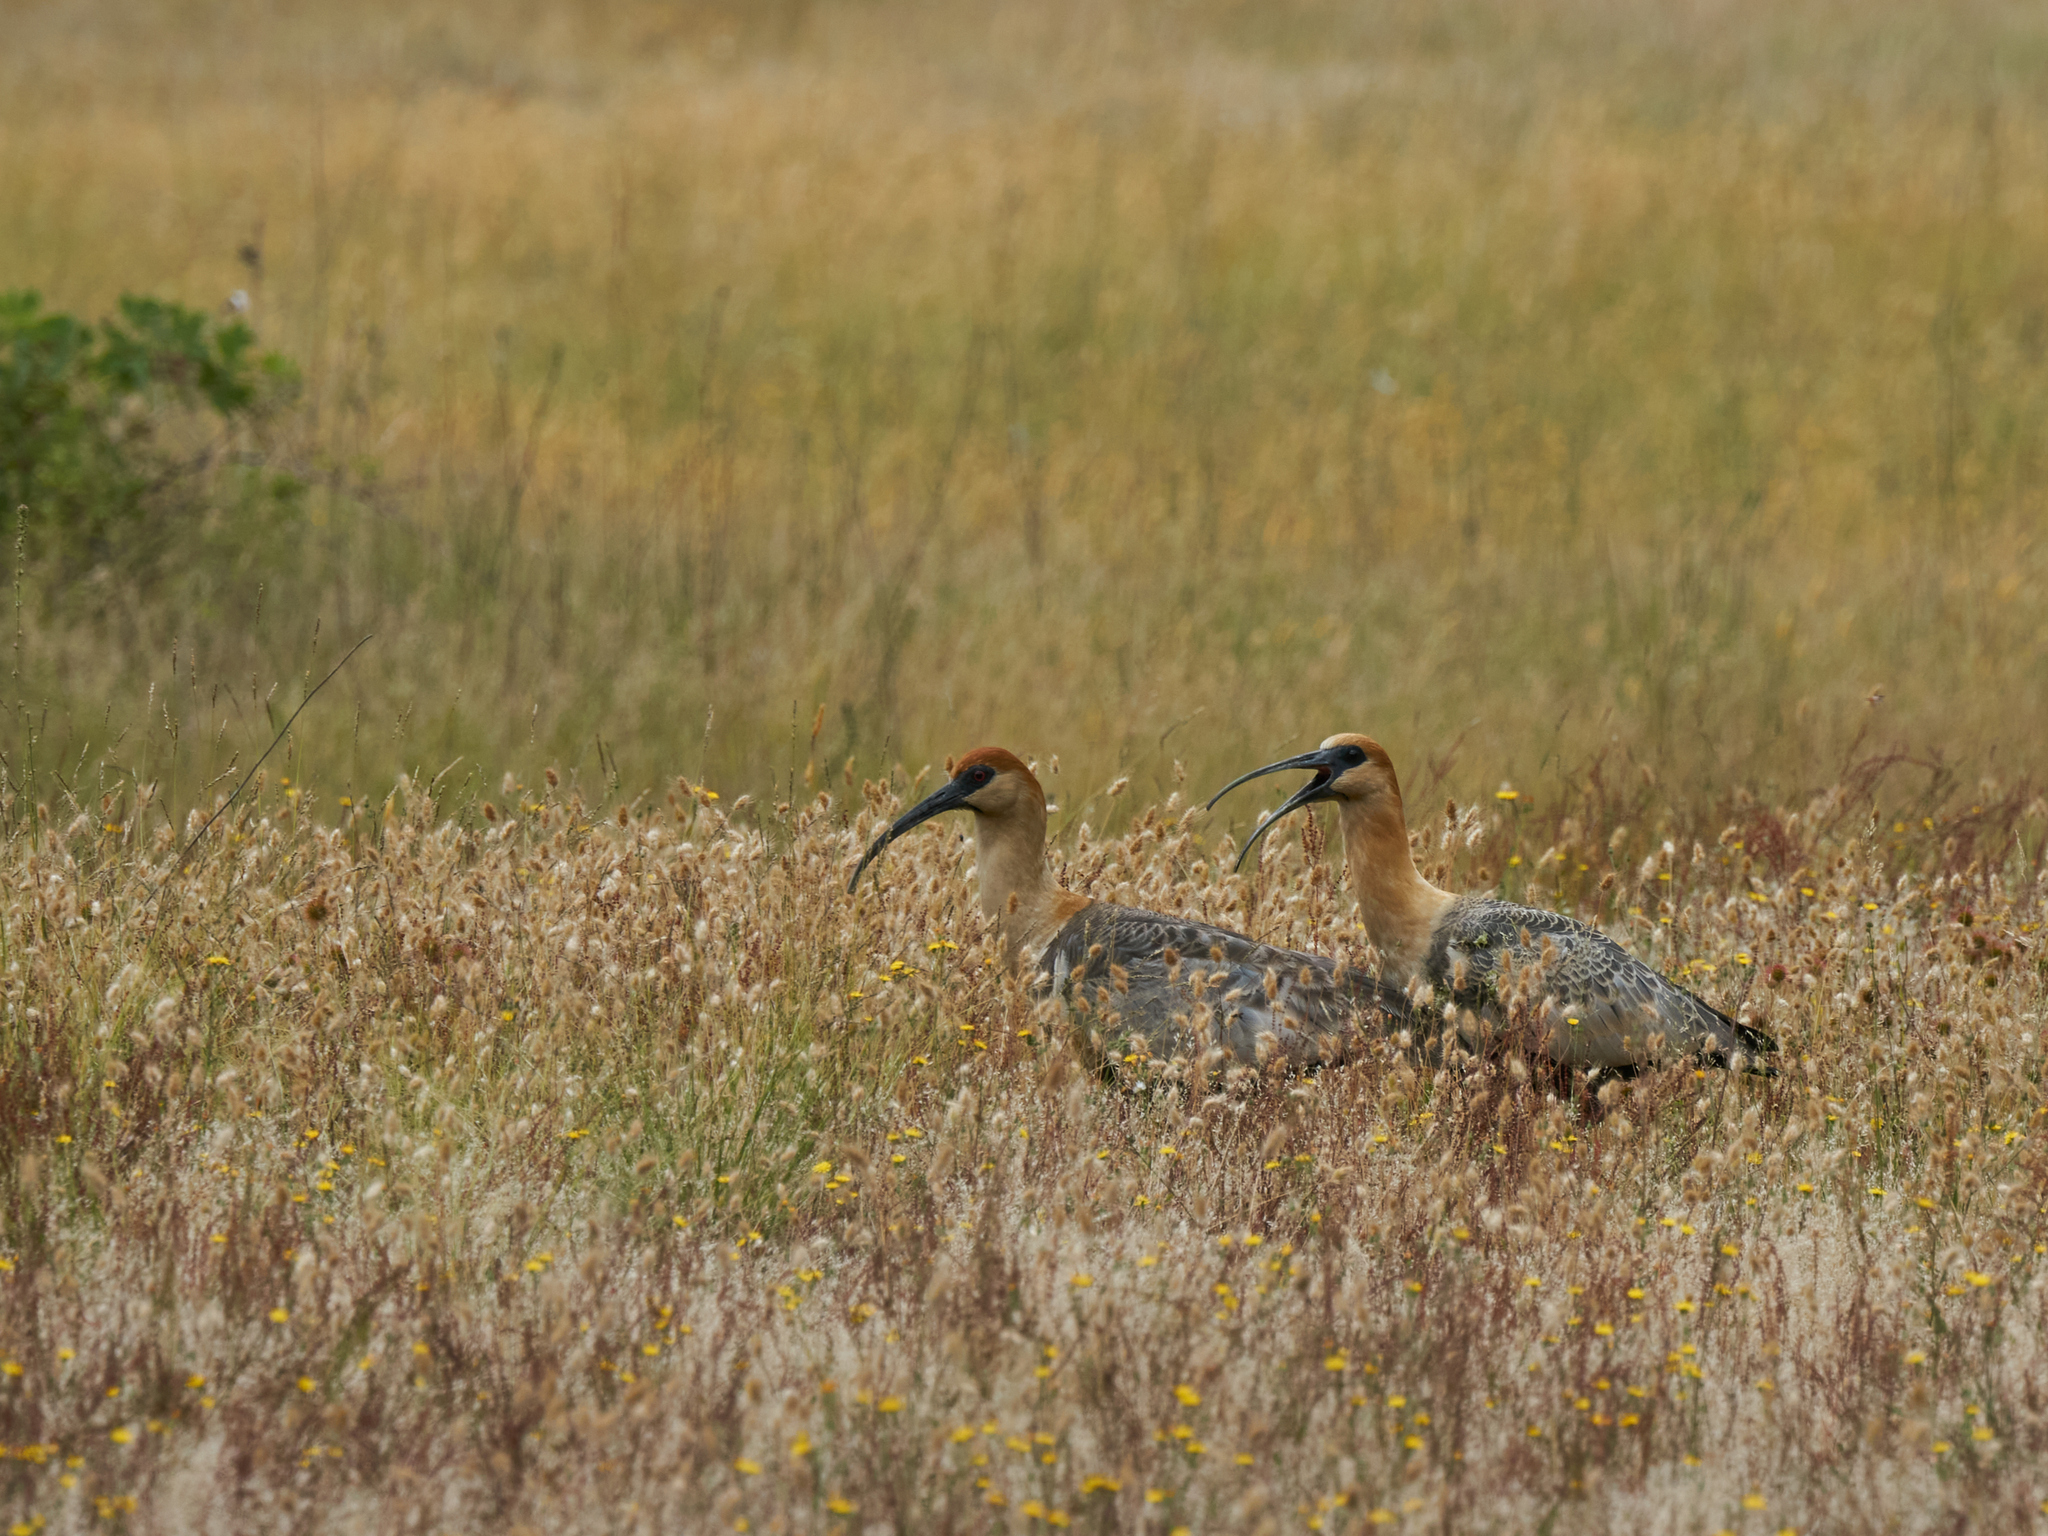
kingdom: Animalia
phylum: Chordata
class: Aves
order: Pelecaniformes
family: Threskiornithidae
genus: Theristicus
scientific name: Theristicus melanopis
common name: Black-faced ibis
